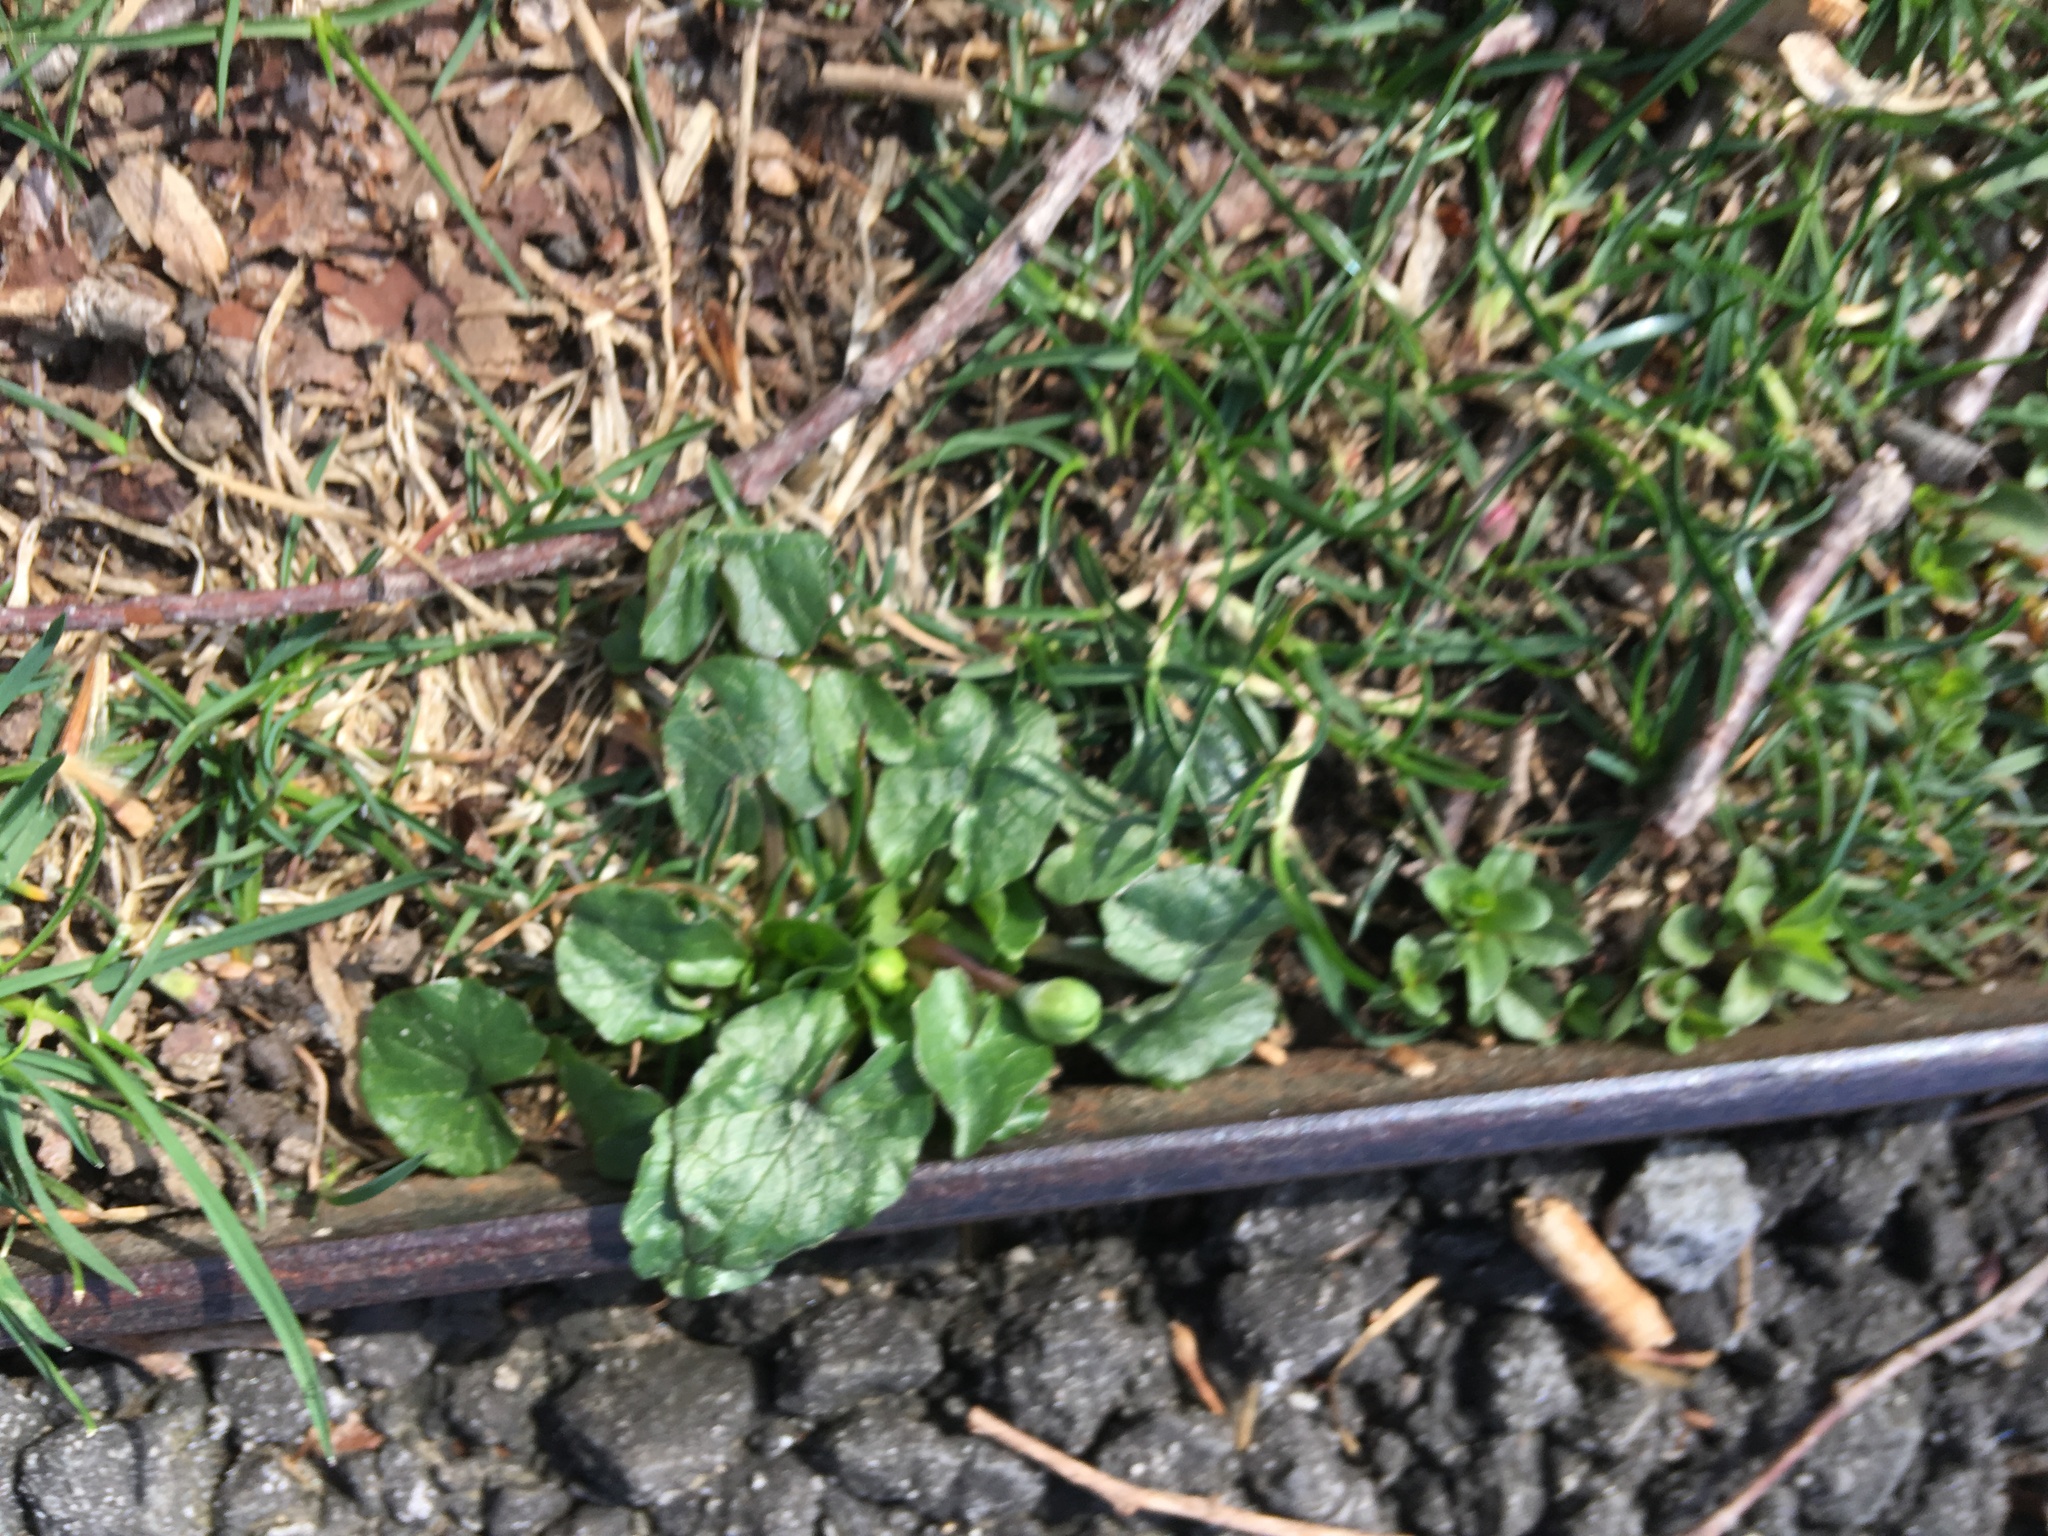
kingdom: Plantae
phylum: Tracheophyta
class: Magnoliopsida
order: Ranunculales
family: Ranunculaceae
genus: Ficaria
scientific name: Ficaria verna
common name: Lesser celandine
